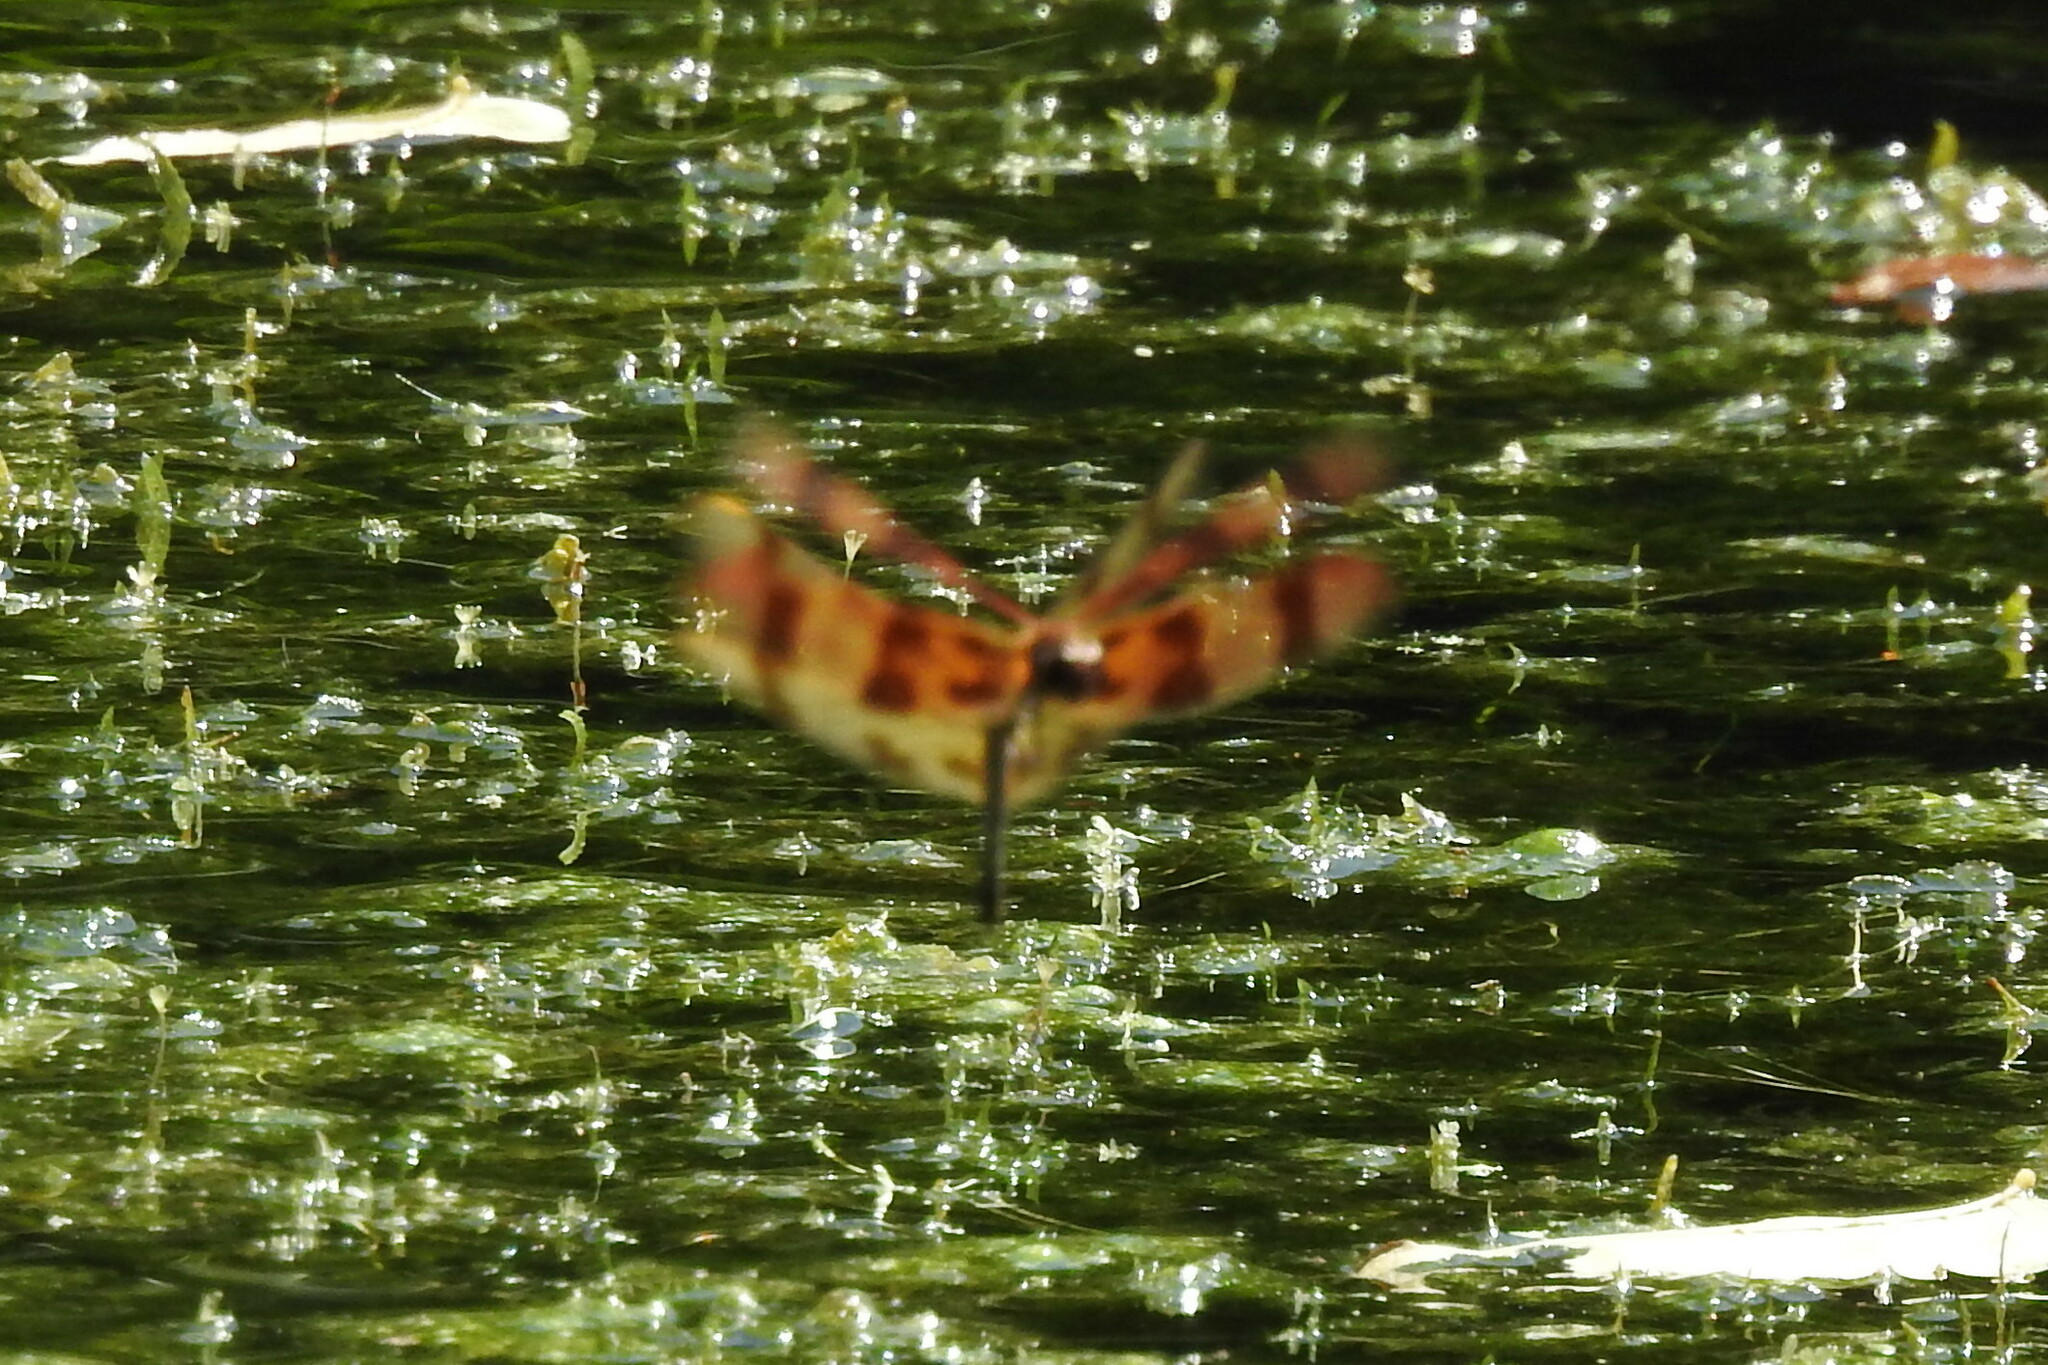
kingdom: Animalia
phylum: Arthropoda
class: Insecta
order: Odonata
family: Libellulidae
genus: Celithemis
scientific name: Celithemis eponina
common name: Halloween pennant
